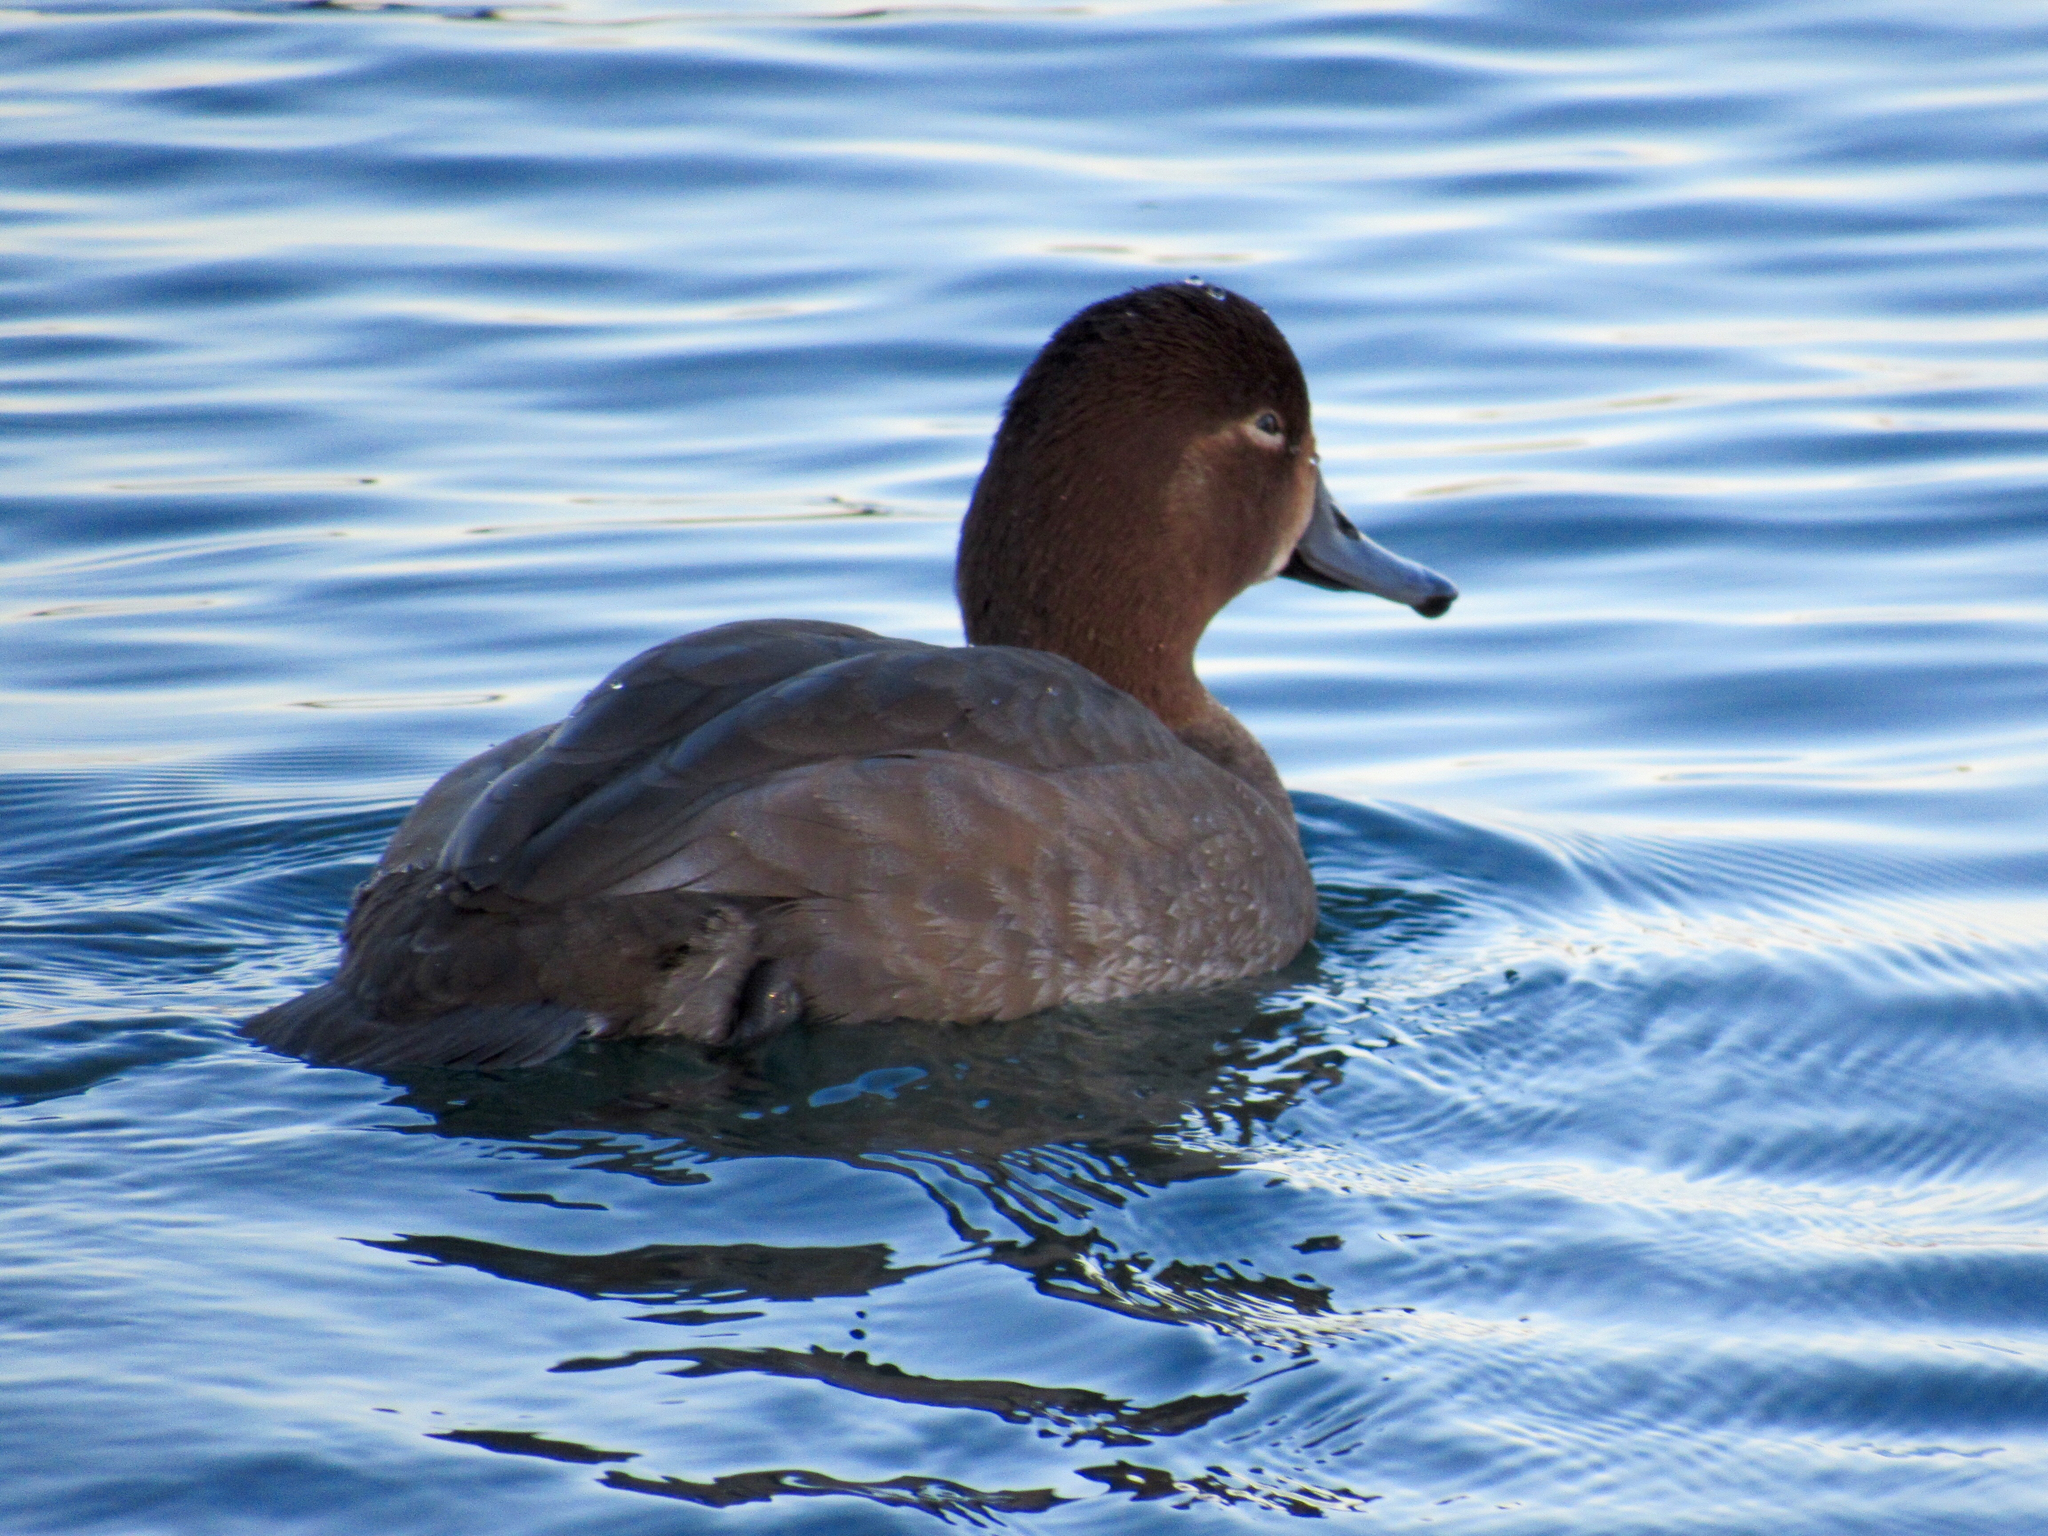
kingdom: Animalia
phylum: Chordata
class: Aves
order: Anseriformes
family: Anatidae
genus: Aythya
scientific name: Aythya americana
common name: Redhead
